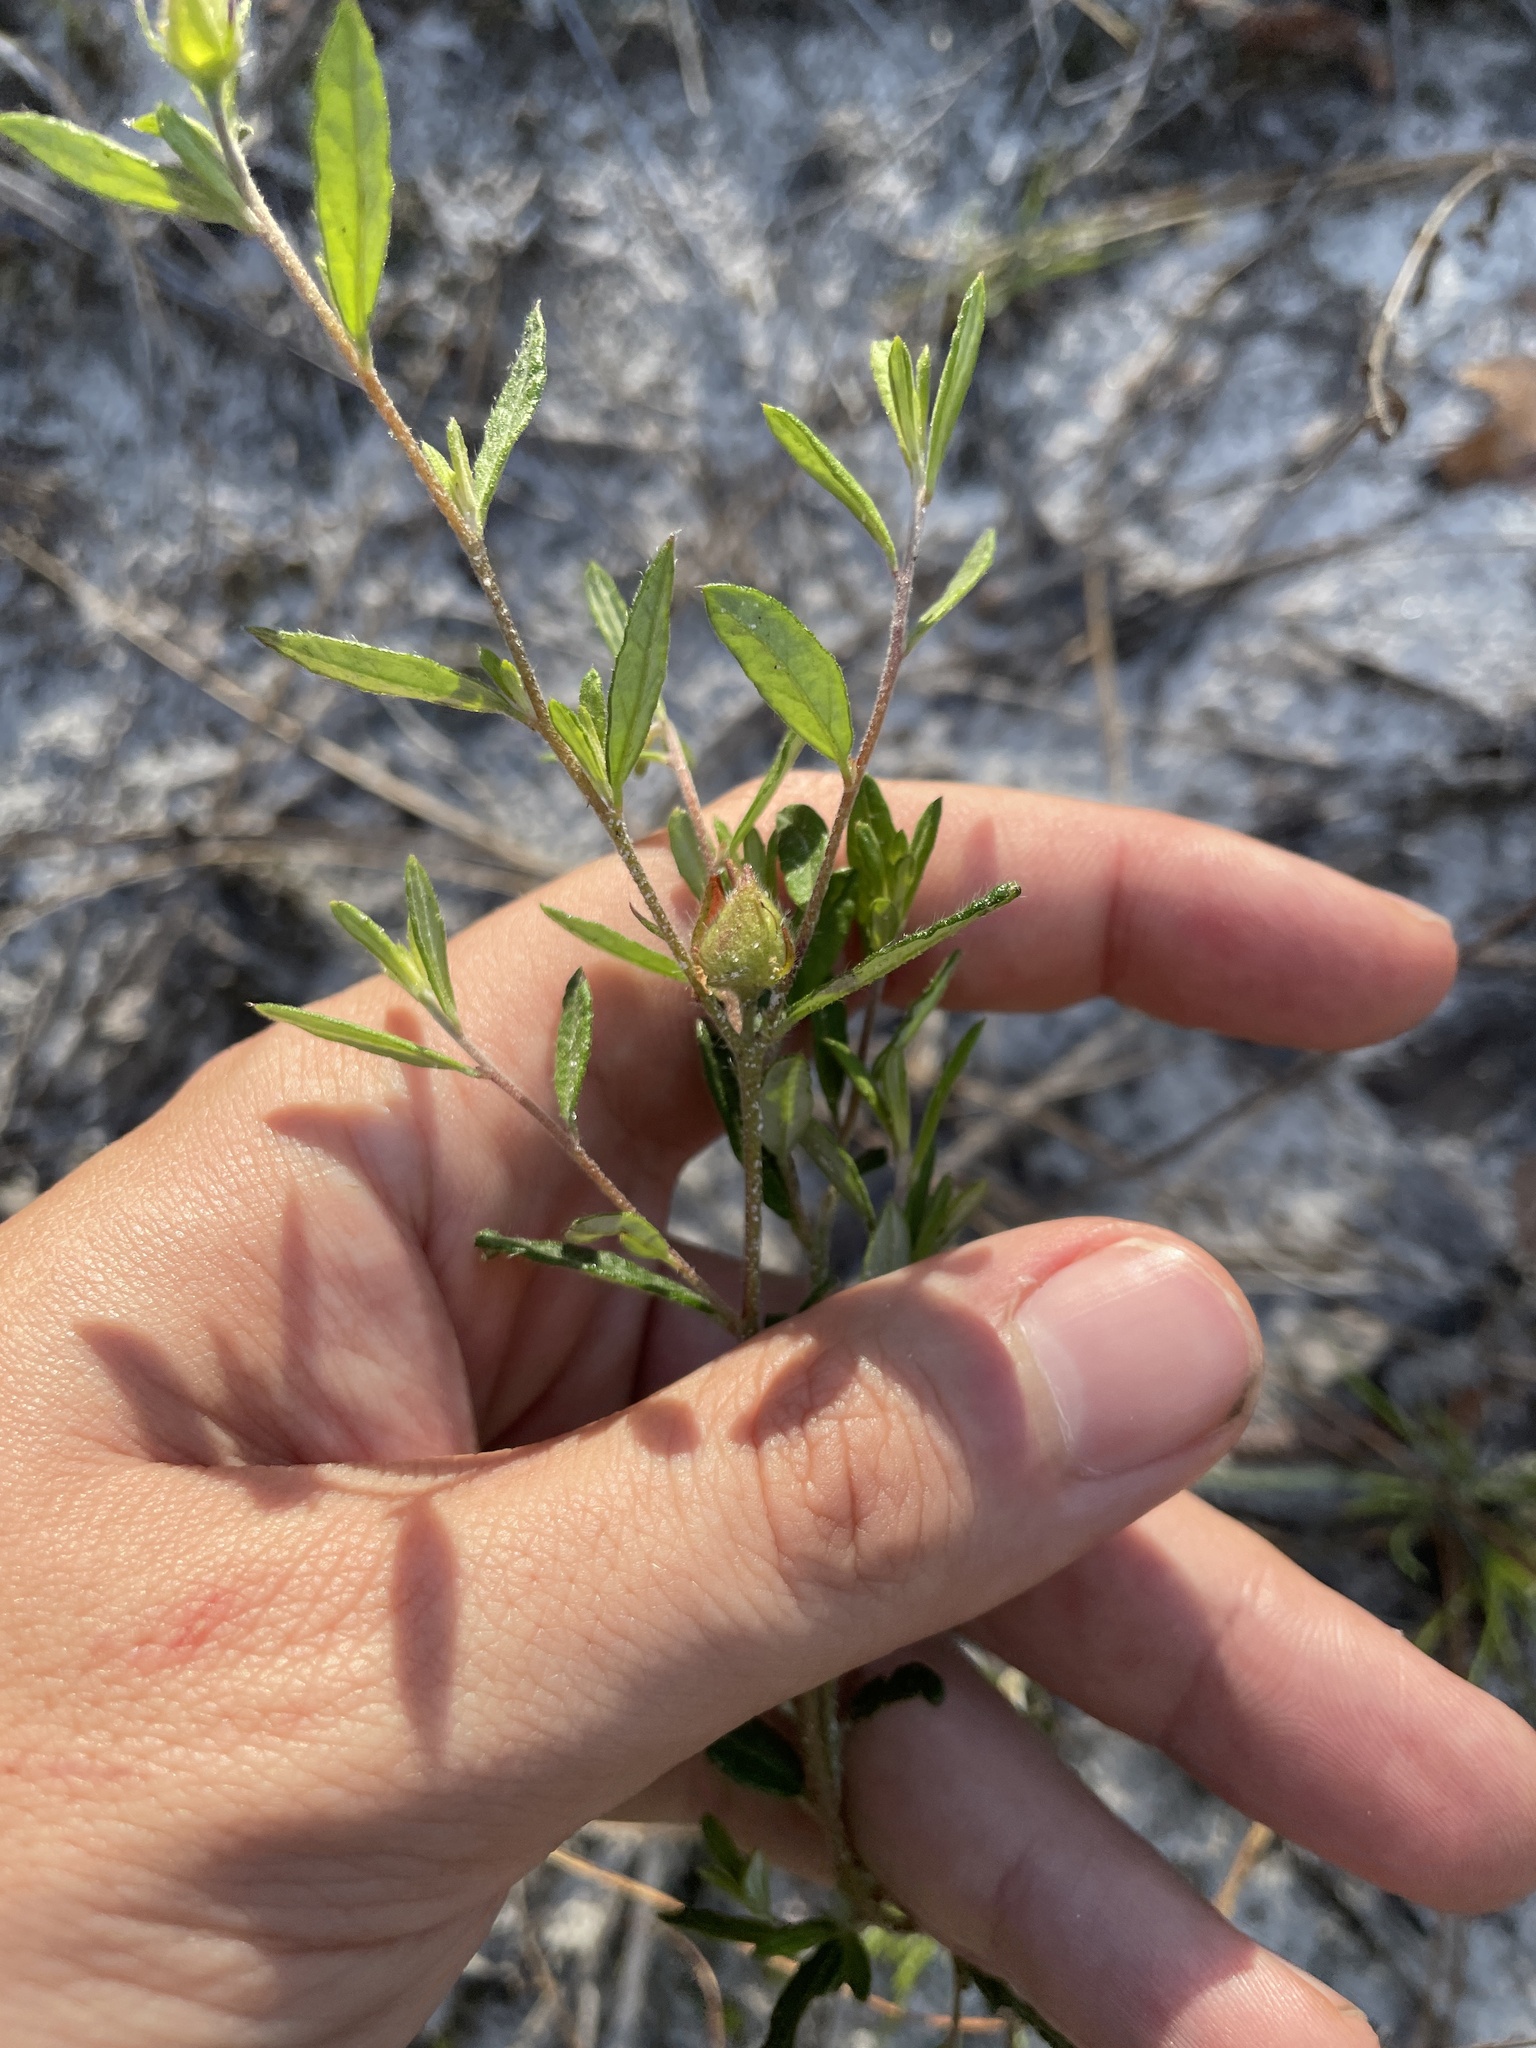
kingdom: Plantae
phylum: Tracheophyta
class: Magnoliopsida
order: Malvales
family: Cistaceae
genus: Crocanthemum
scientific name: Crocanthemum canadense
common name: Canada frostweed
